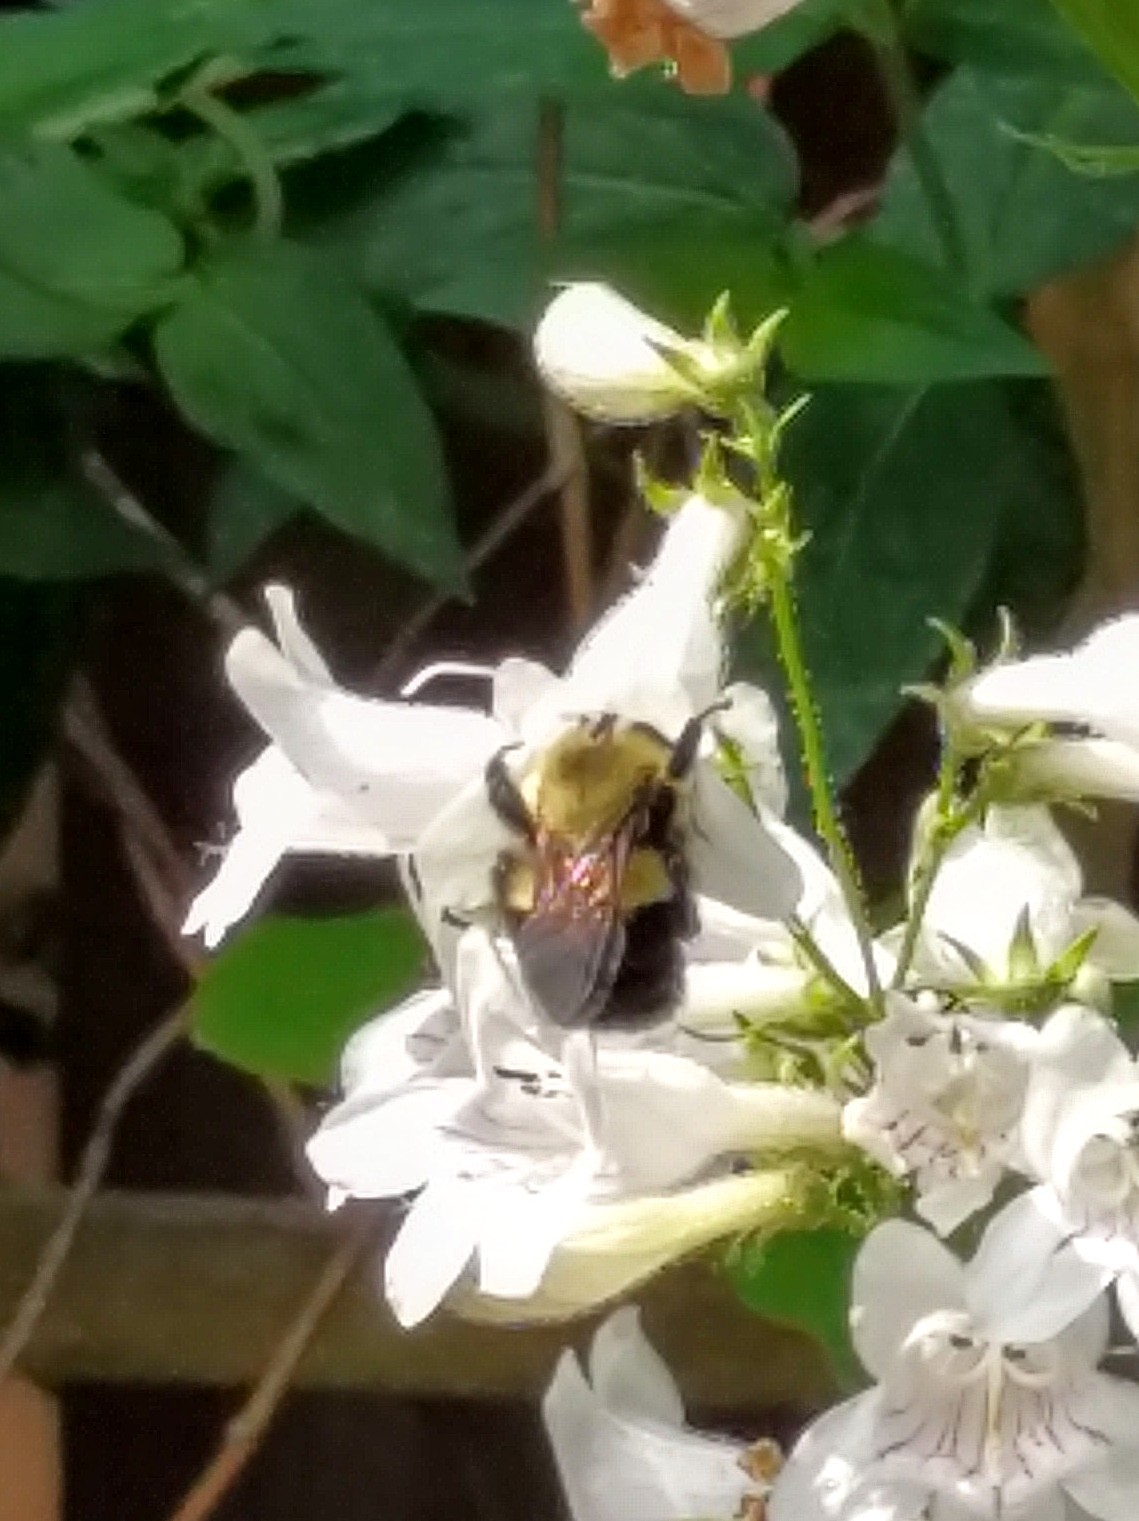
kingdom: Animalia
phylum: Arthropoda
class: Insecta
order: Hymenoptera
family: Apidae
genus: Bombus
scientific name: Bombus bimaculatus
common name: Two-spotted bumble bee
